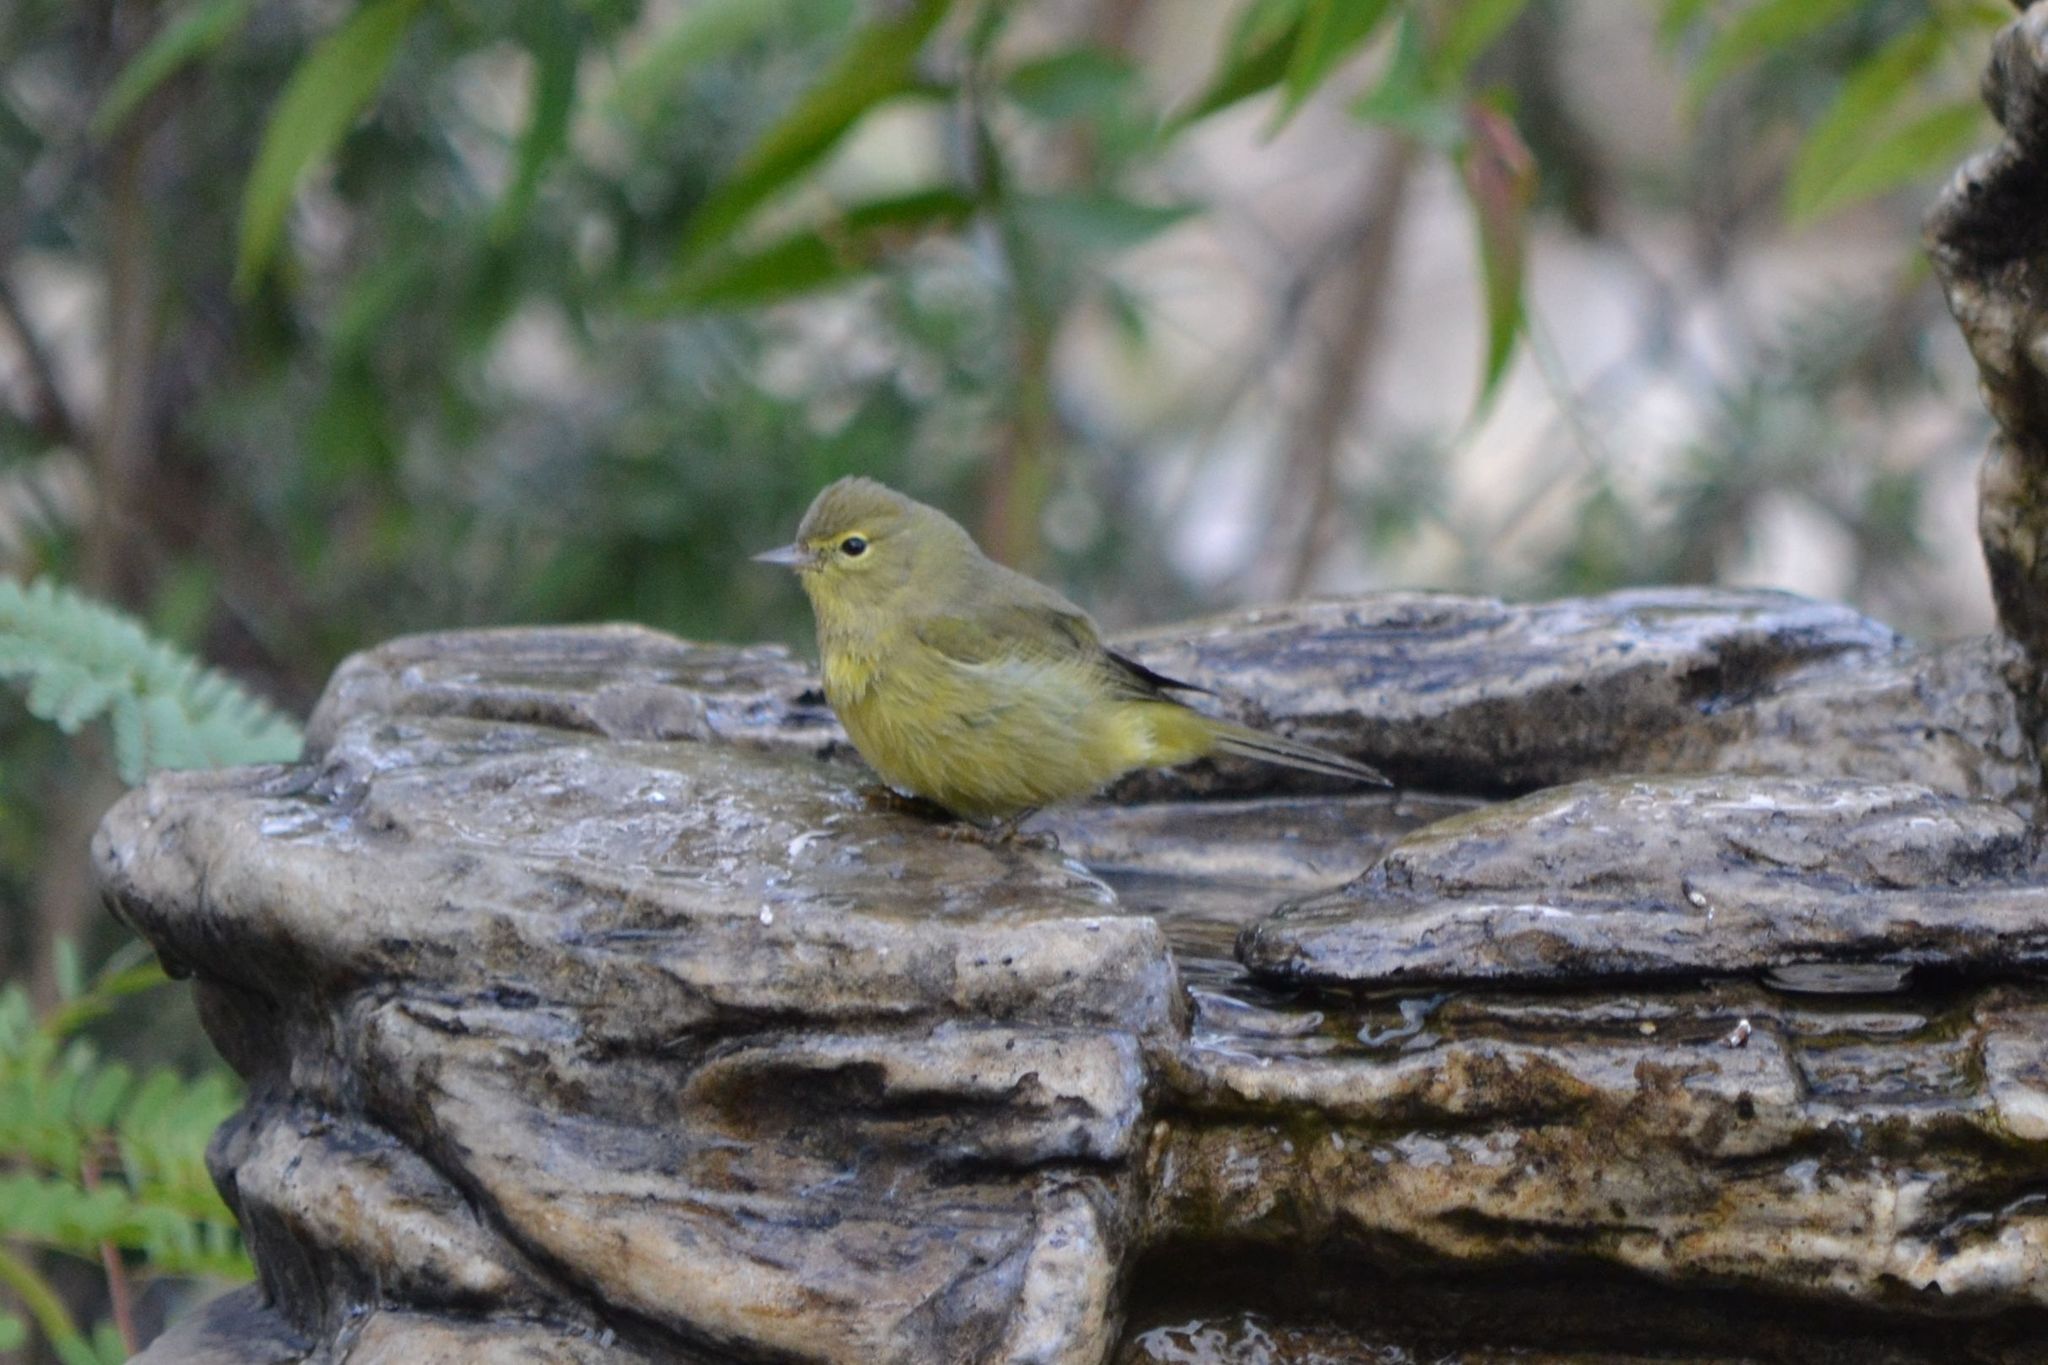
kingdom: Animalia
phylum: Chordata
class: Aves
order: Passeriformes
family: Parulidae
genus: Leiothlypis
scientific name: Leiothlypis celata
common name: Orange-crowned warbler
